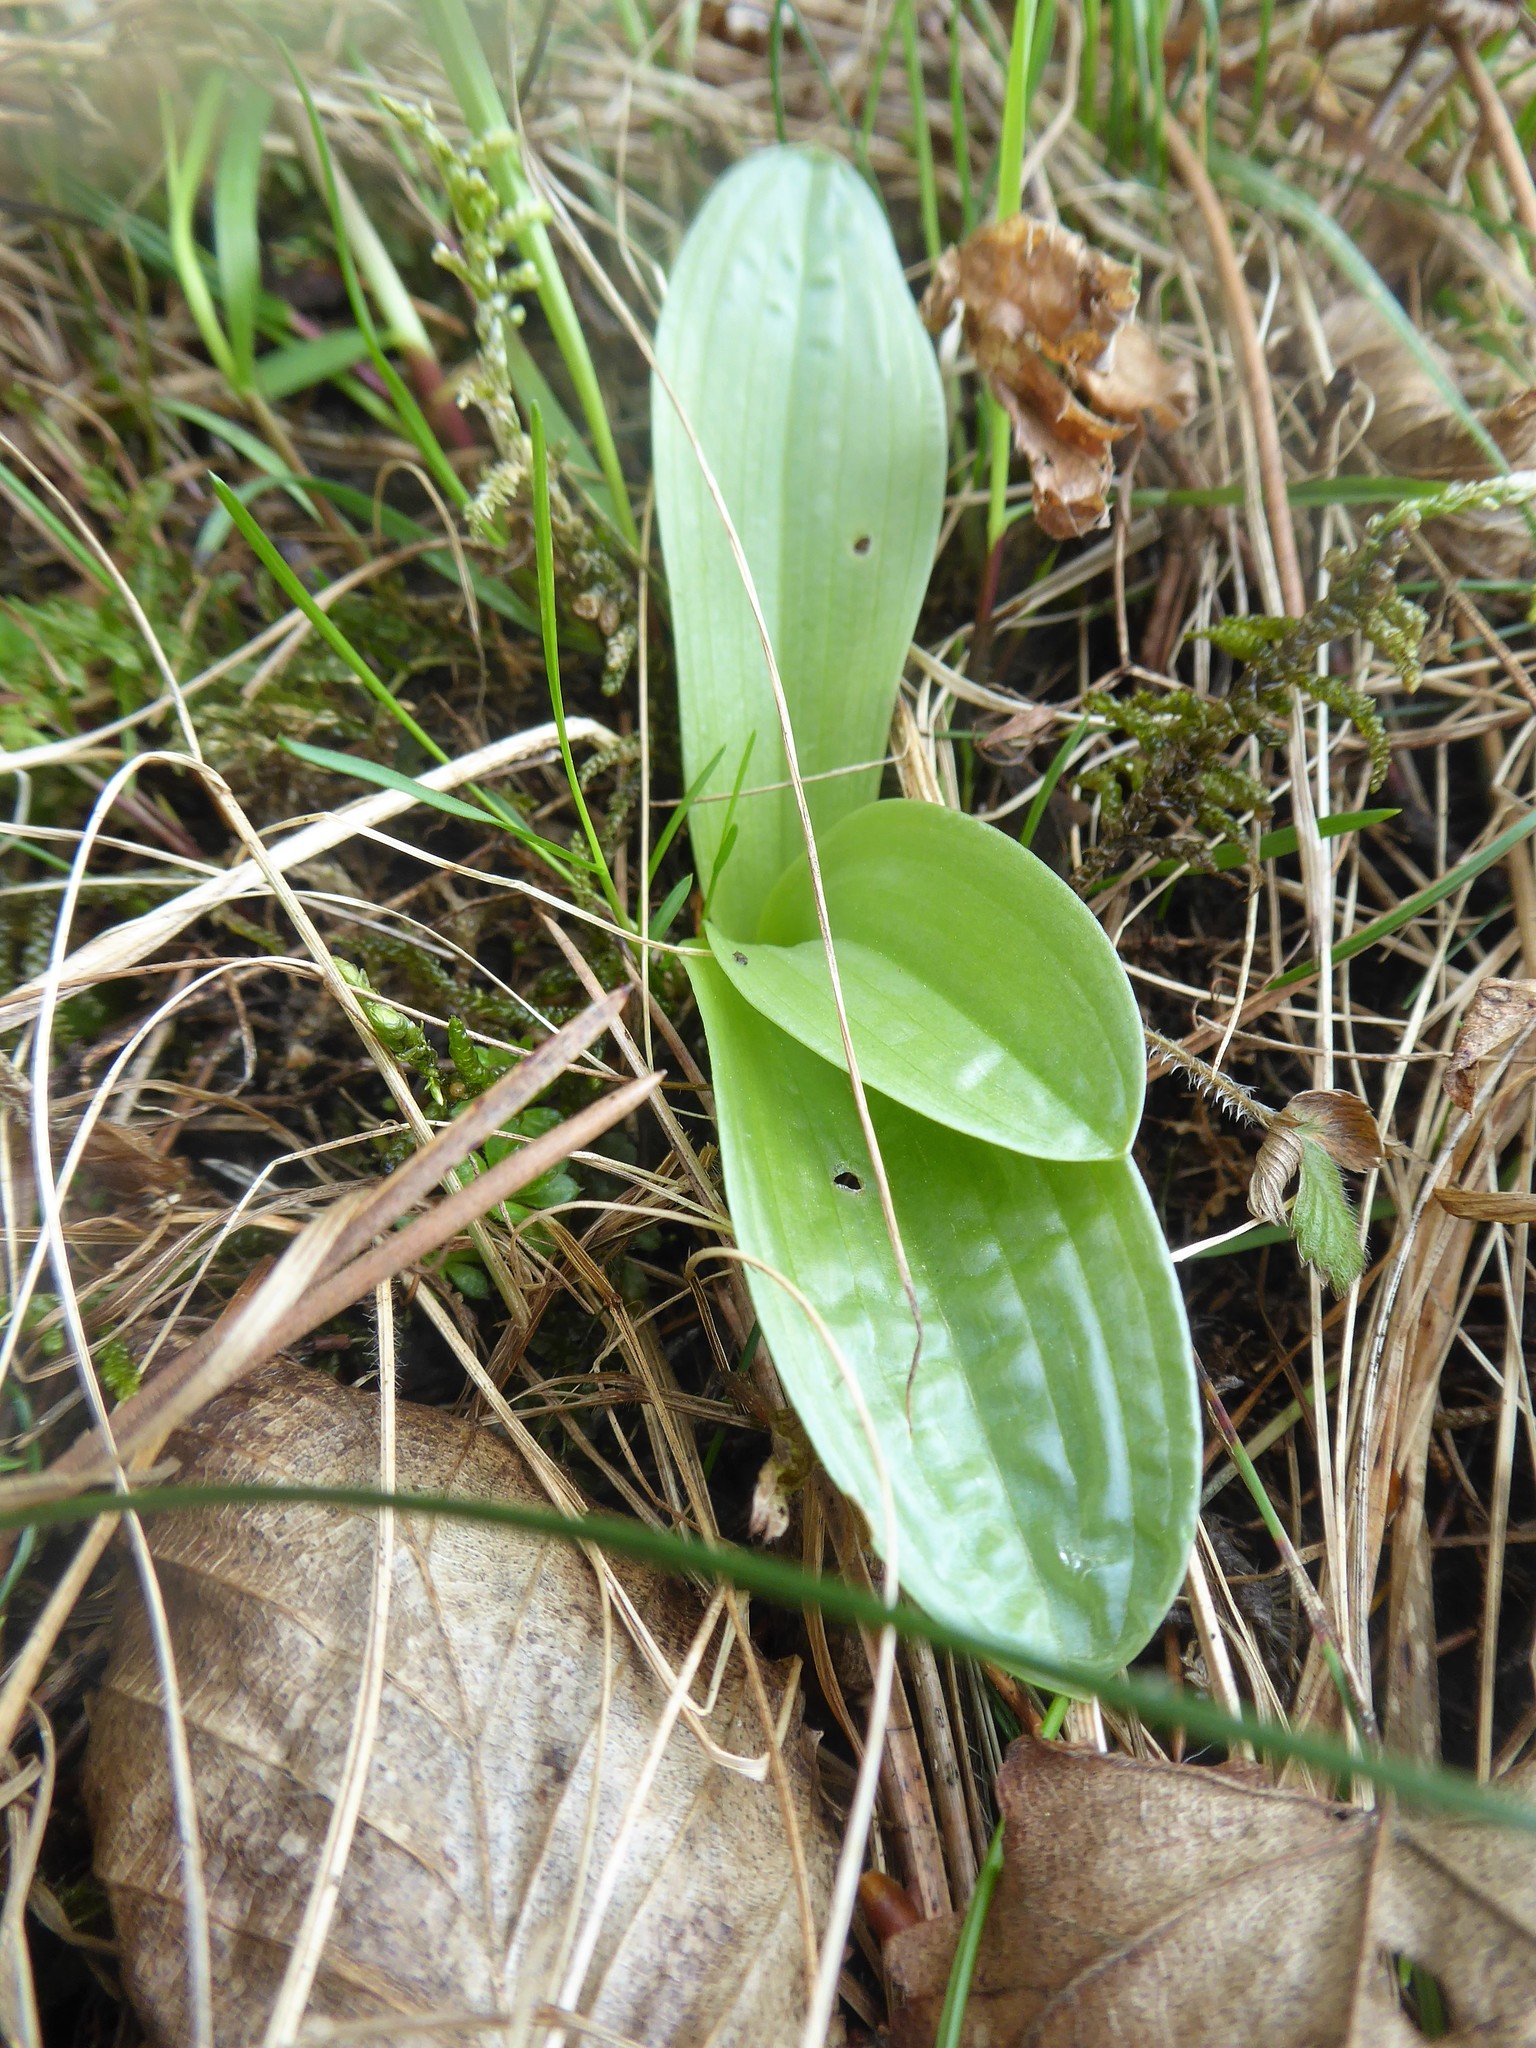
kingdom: Plantae
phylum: Tracheophyta
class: Liliopsida
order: Asparagales
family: Orchidaceae
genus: Orchis
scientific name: Orchis pallens
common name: Pale-flowered orchid
